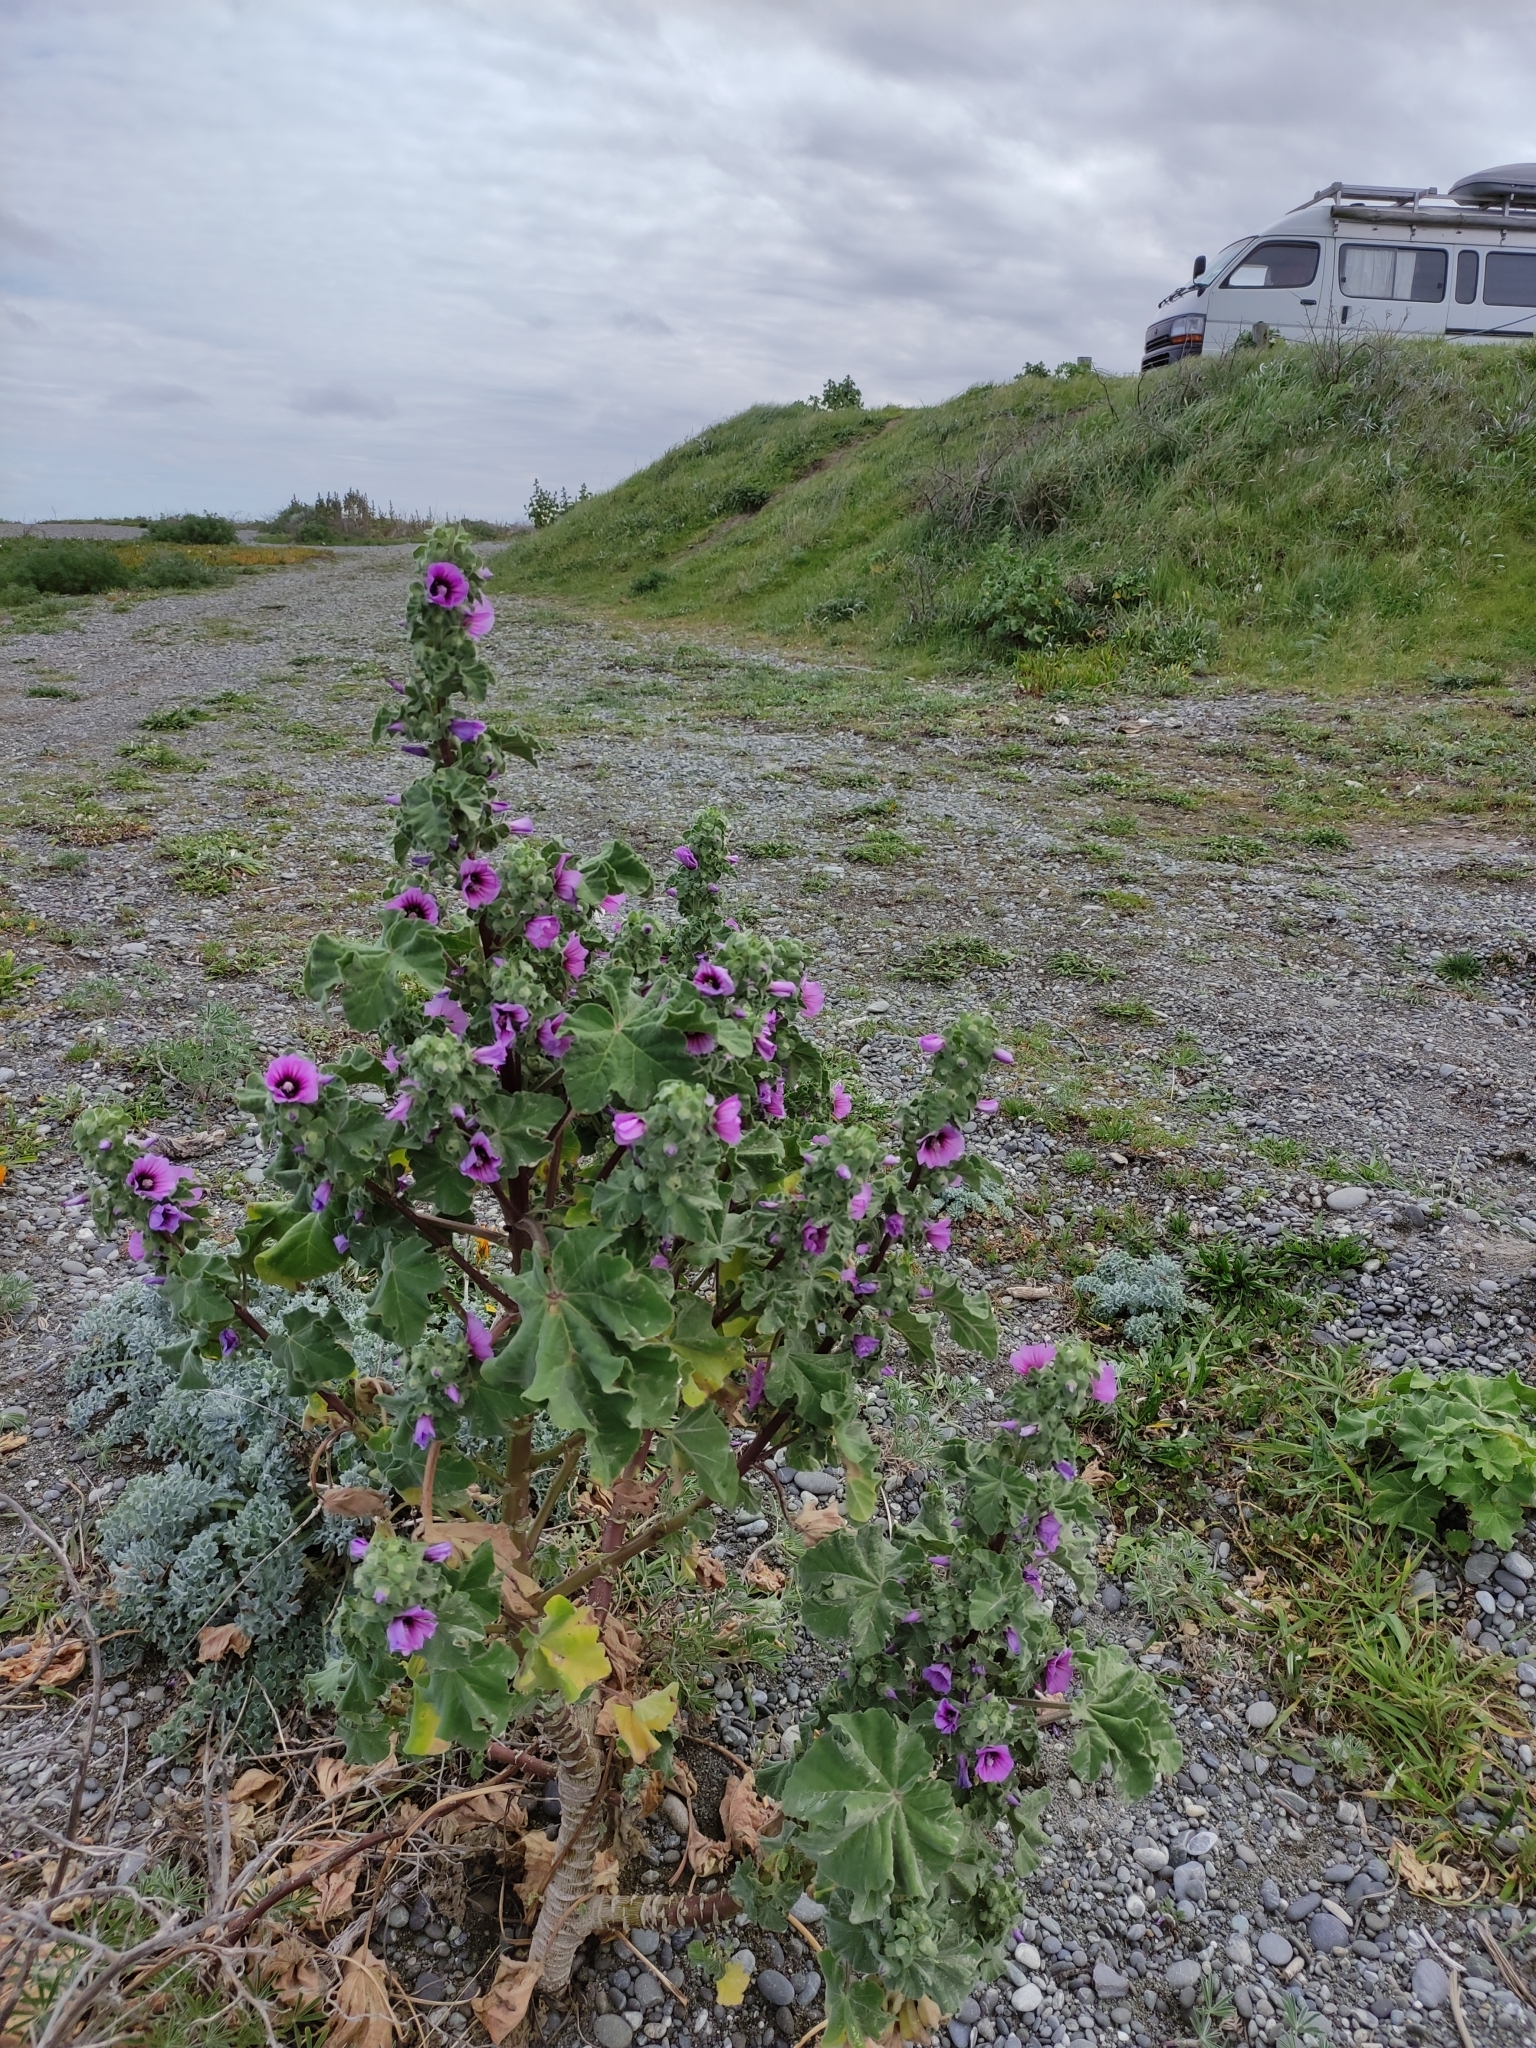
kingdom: Plantae
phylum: Tracheophyta
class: Magnoliopsida
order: Malvales
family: Malvaceae
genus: Malva
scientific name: Malva arborea
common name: Tree mallow
